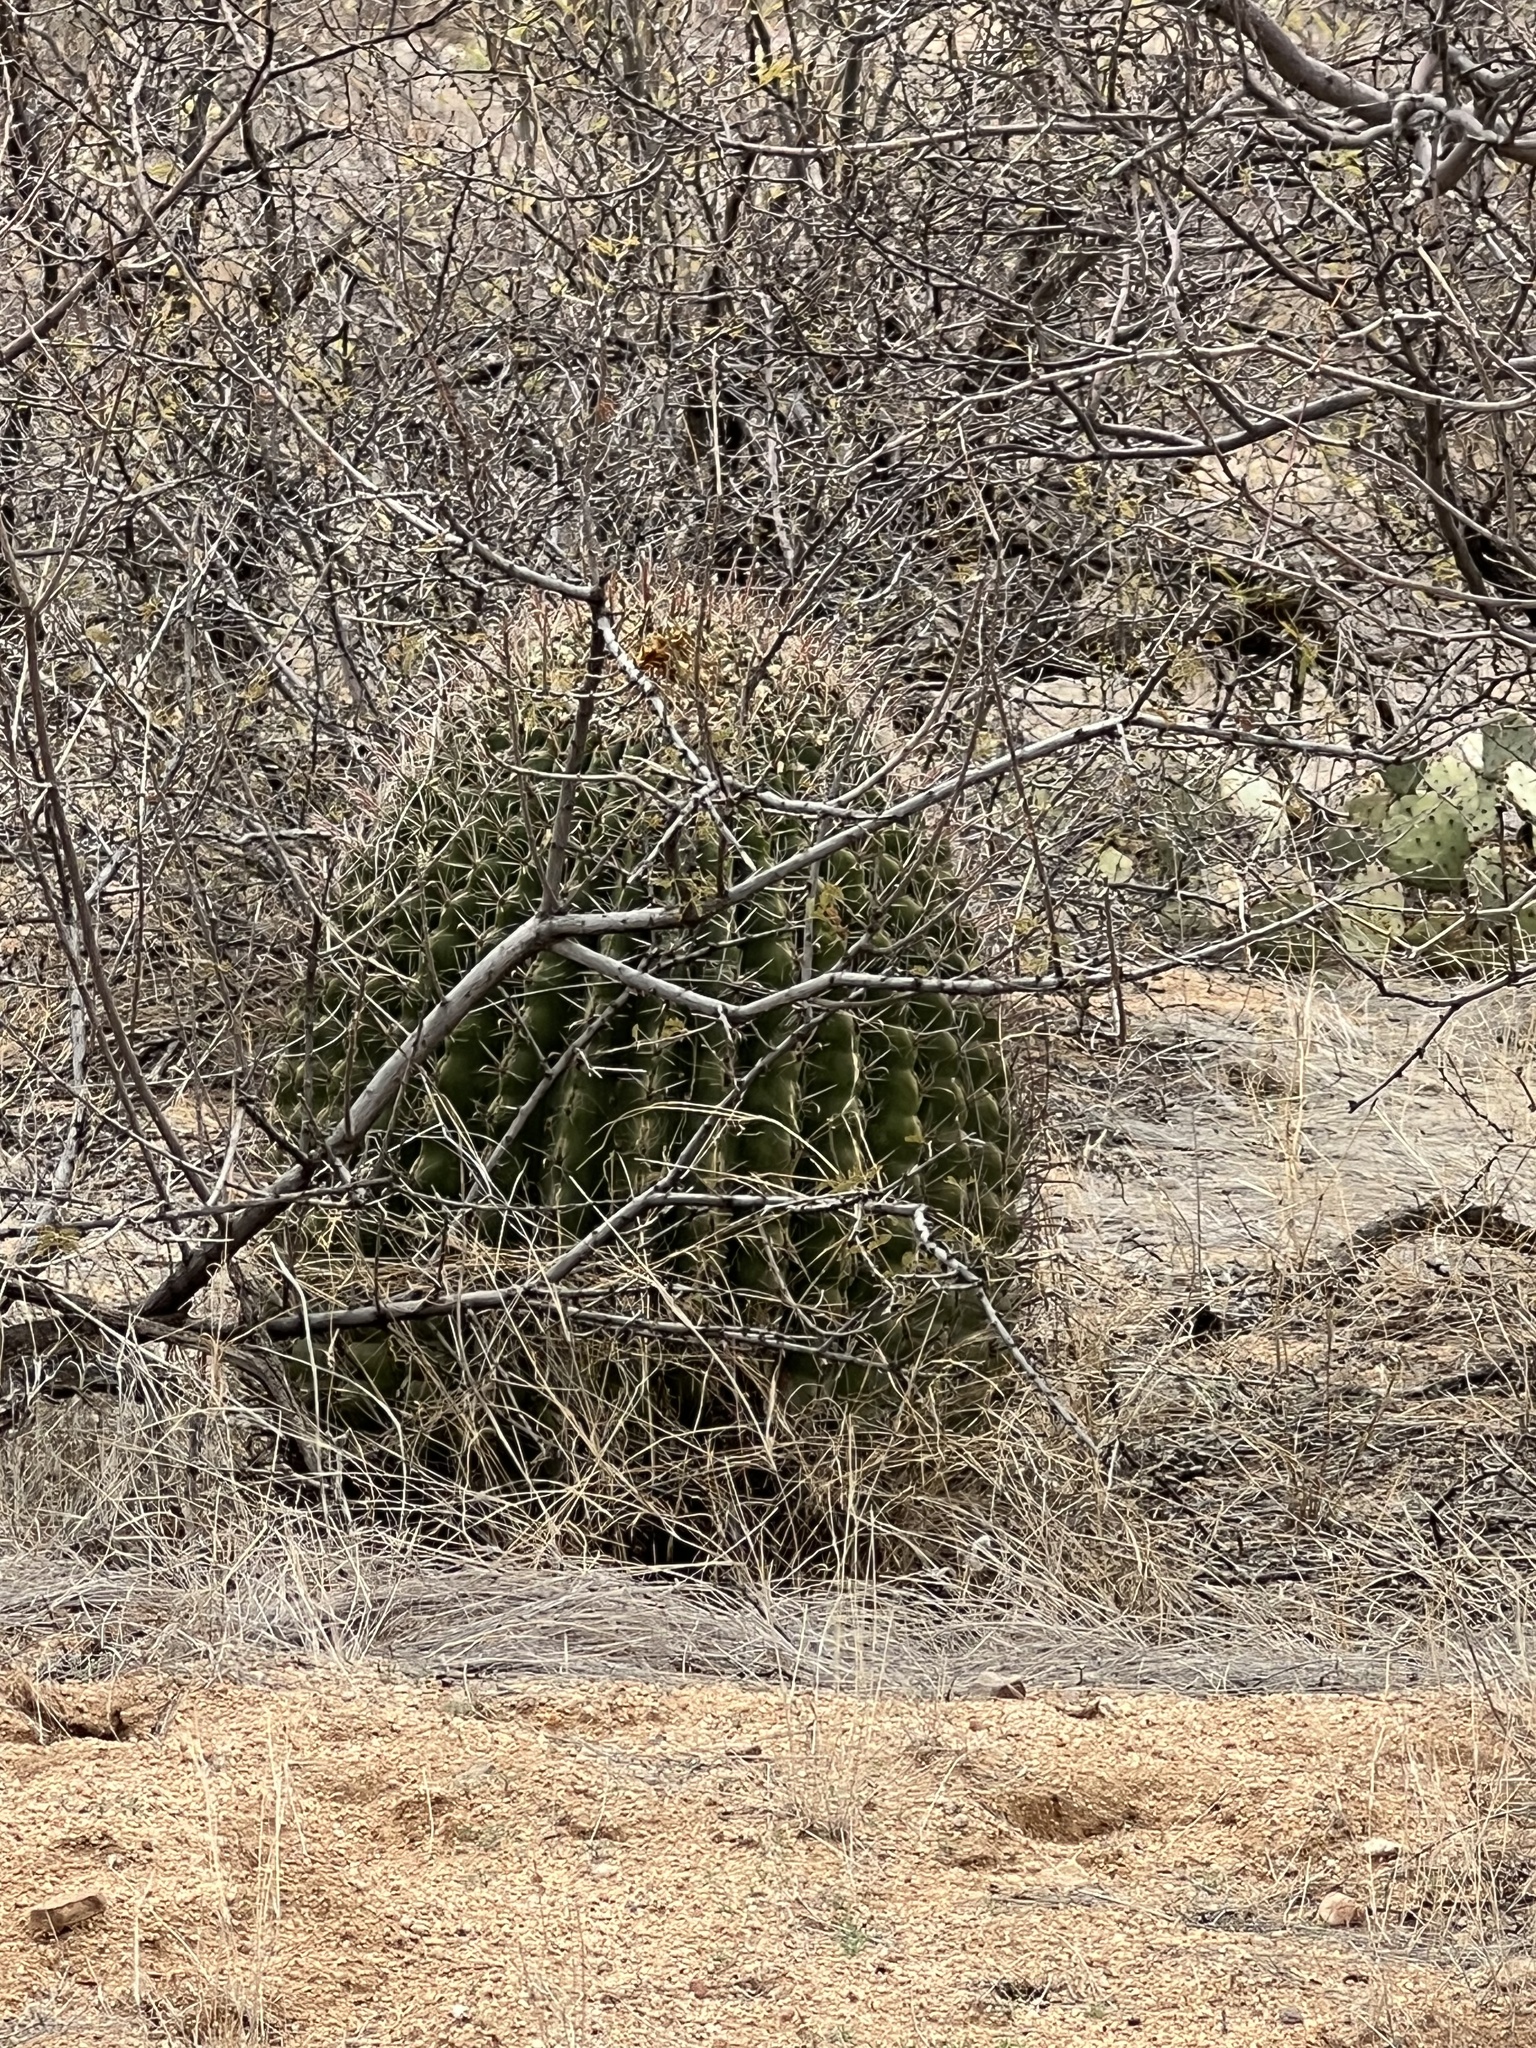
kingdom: Plantae
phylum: Tracheophyta
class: Magnoliopsida
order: Caryophyllales
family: Cactaceae
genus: Ferocactus
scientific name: Ferocactus wislizeni
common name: Candy barrel cactus
